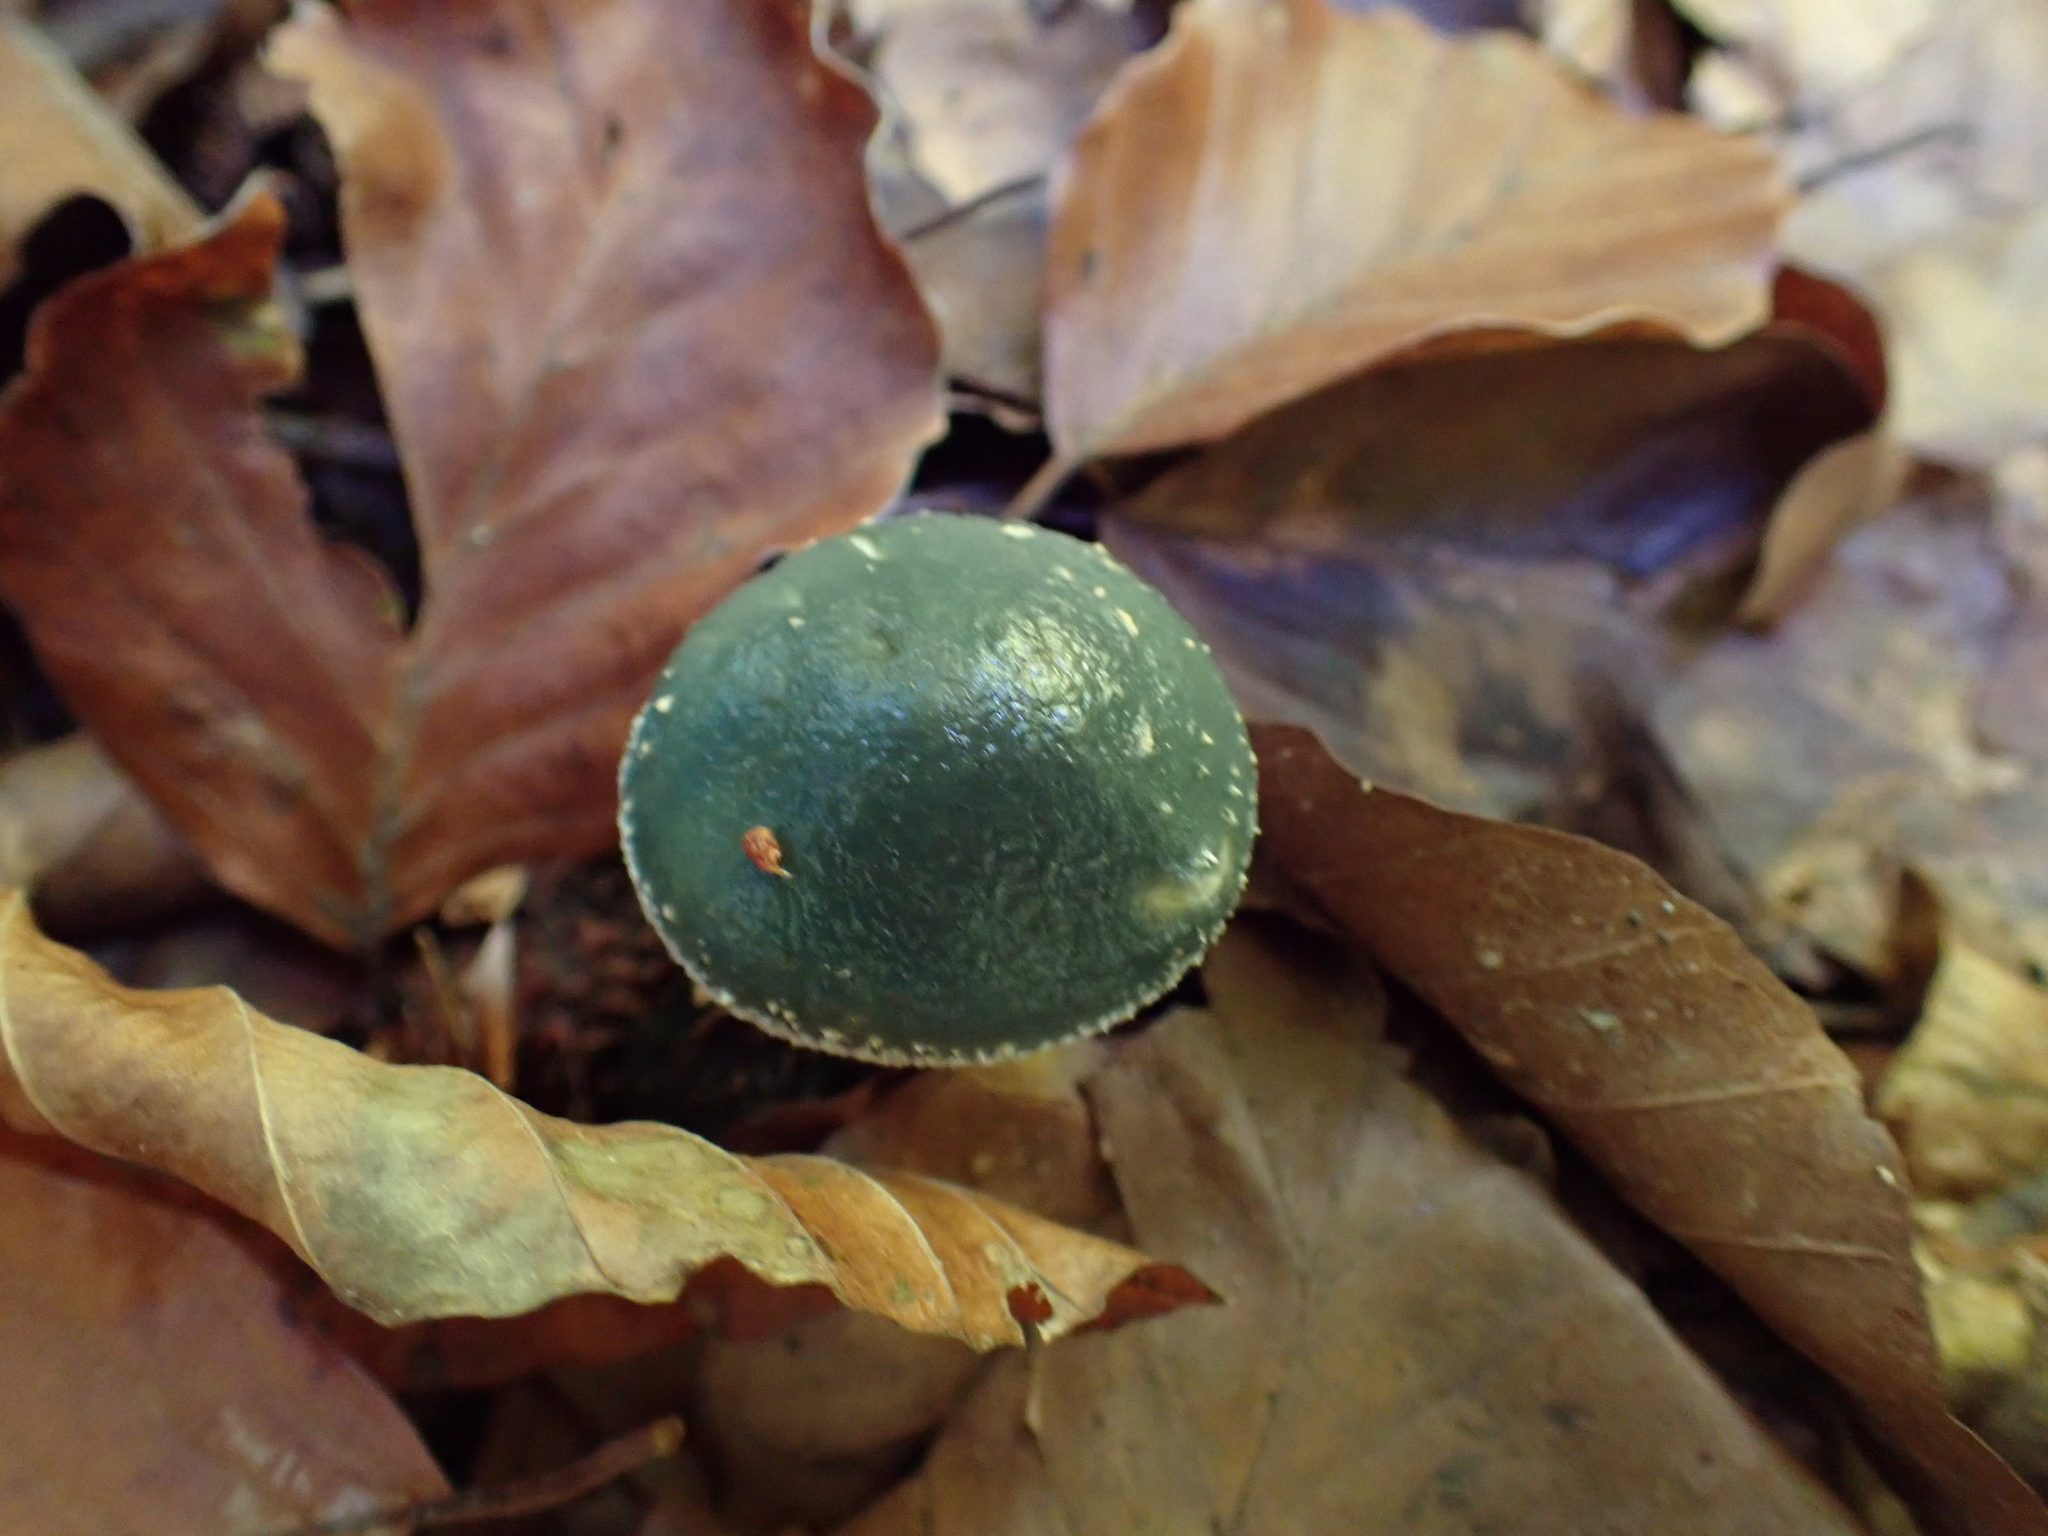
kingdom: Fungi
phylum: Basidiomycota
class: Agaricomycetes
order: Agaricales
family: Strophariaceae
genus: Stropharia
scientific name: Stropharia caerulea
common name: Blue roundhead
